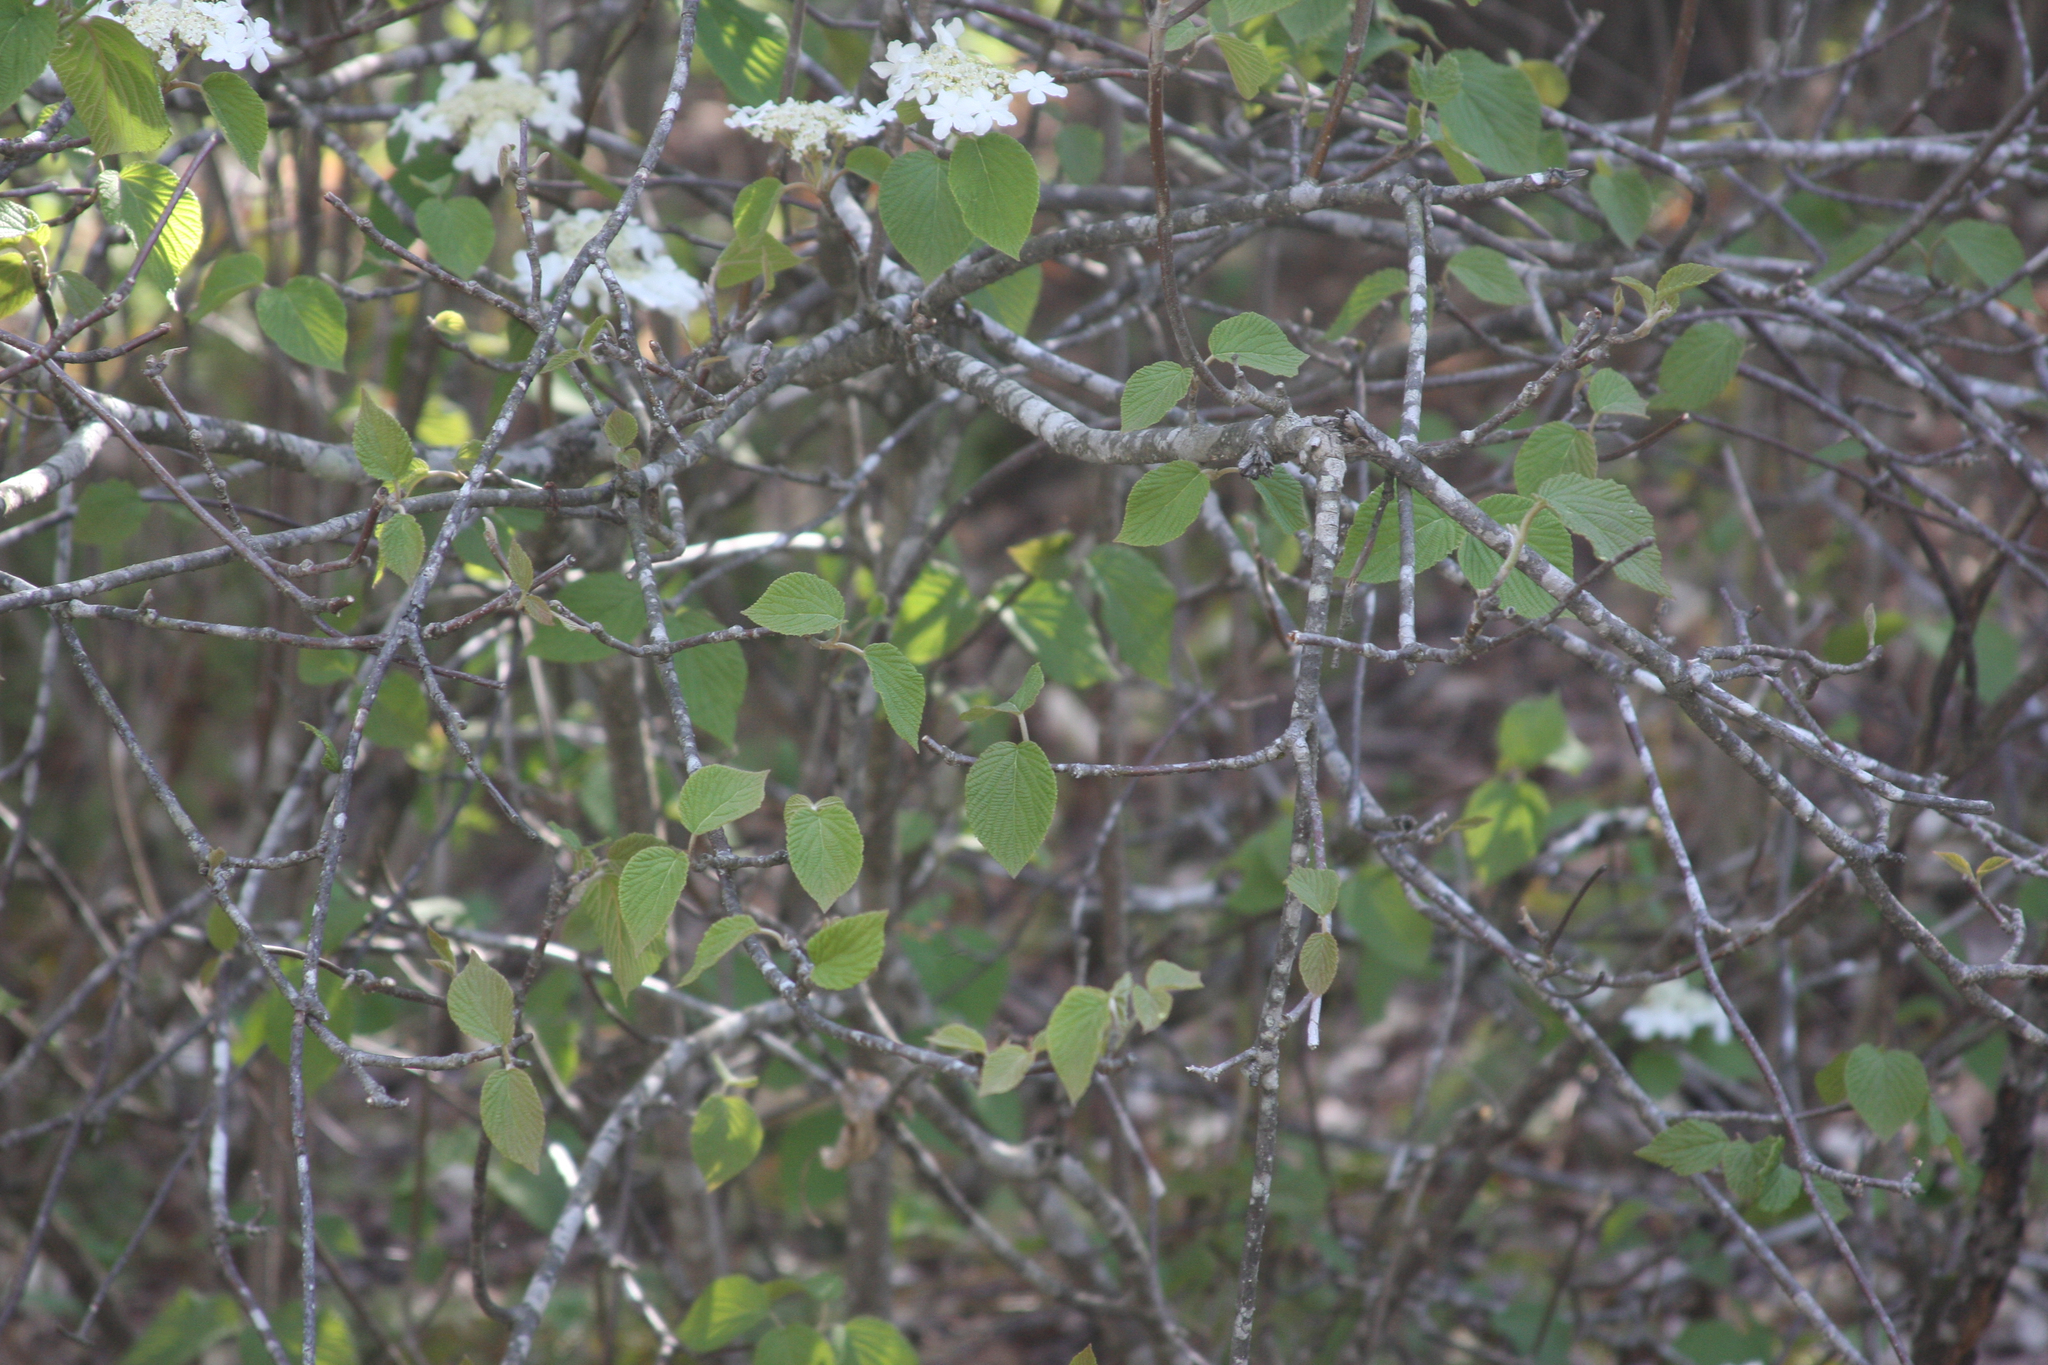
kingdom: Plantae
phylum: Tracheophyta
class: Magnoliopsida
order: Dipsacales
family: Viburnaceae
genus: Viburnum
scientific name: Viburnum lantanoides
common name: Hobblebush
